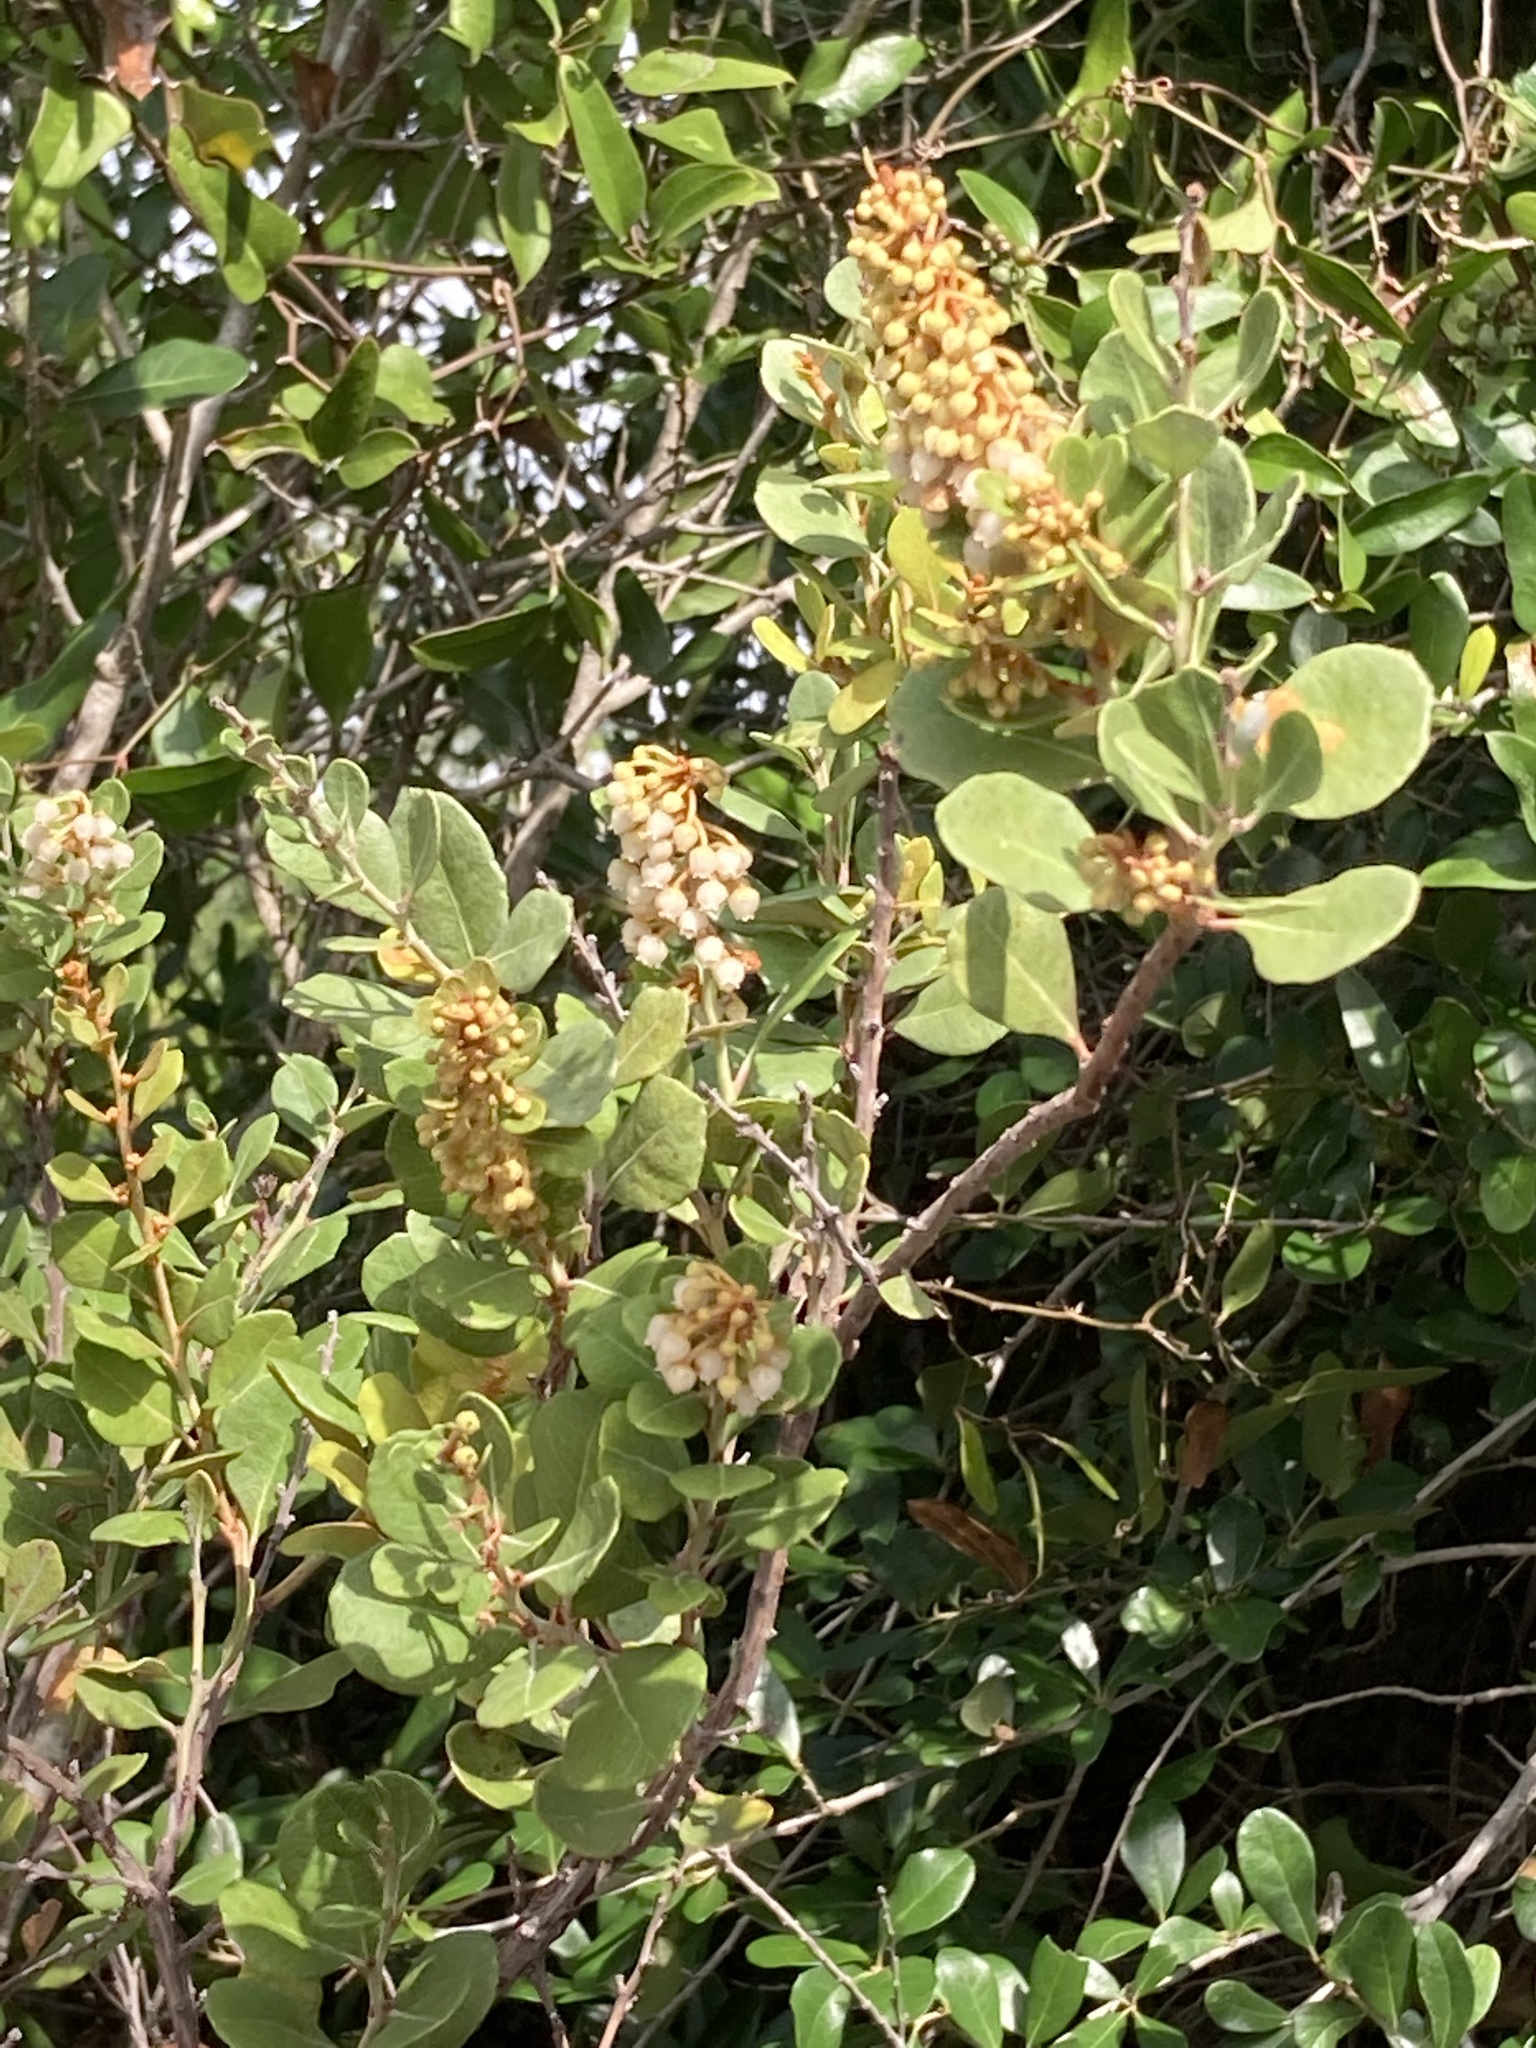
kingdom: Plantae
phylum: Tracheophyta
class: Magnoliopsida
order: Ericales
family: Ericaceae
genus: Lyonia
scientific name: Lyonia fruticosa
